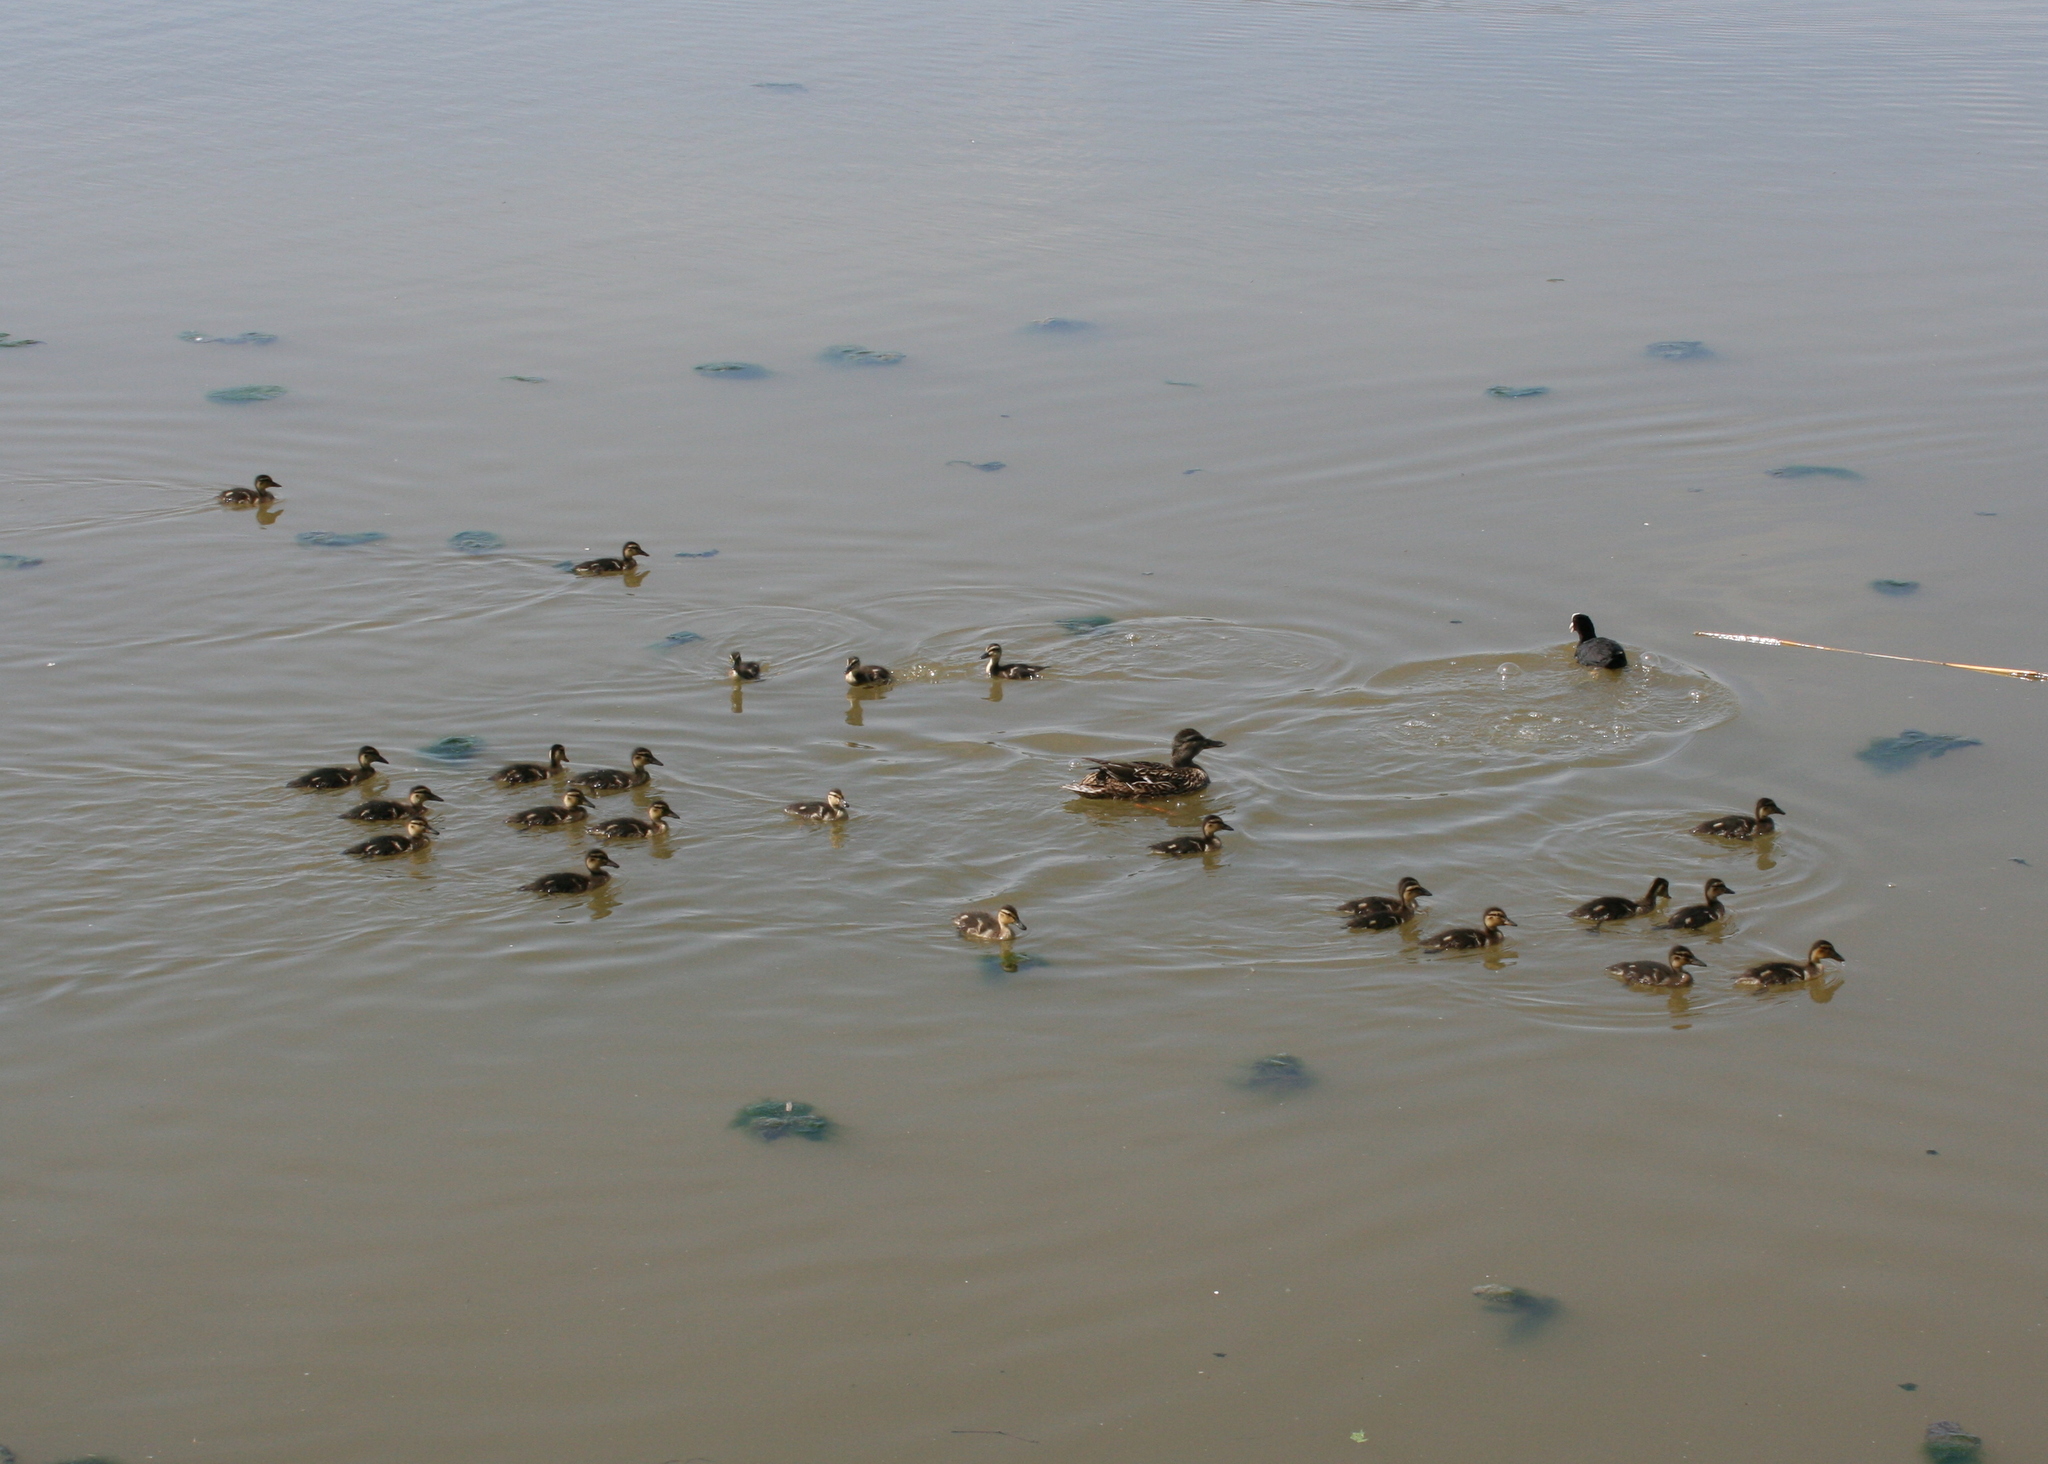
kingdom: Animalia
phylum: Chordata
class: Aves
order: Anseriformes
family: Anatidae
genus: Anas
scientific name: Anas platyrhynchos
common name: Mallard
